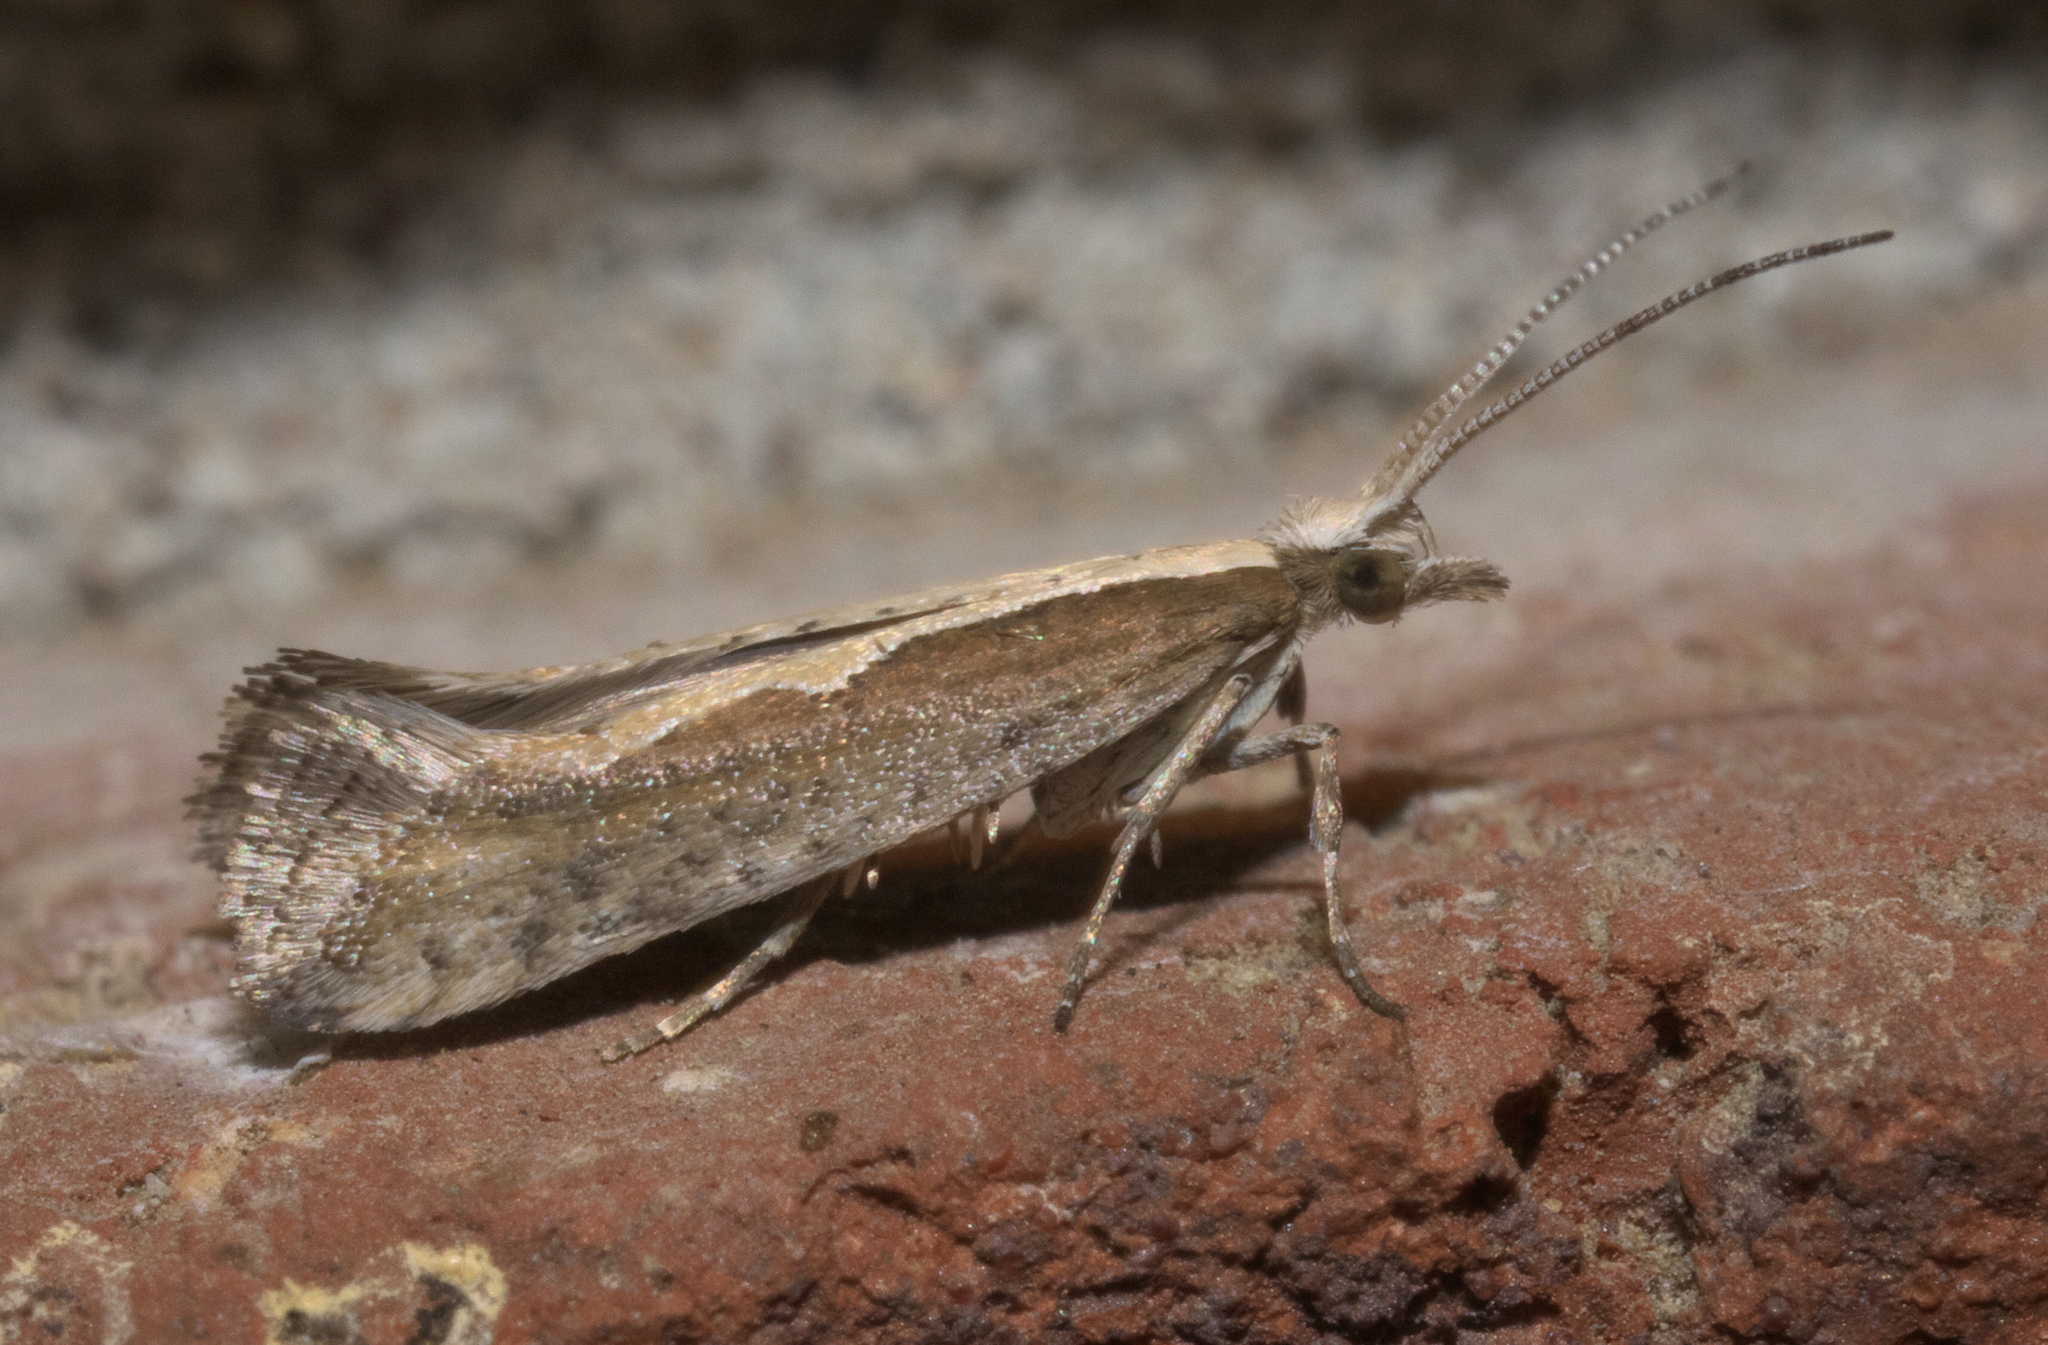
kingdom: Animalia
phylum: Arthropoda
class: Insecta
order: Lepidoptera
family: Plutellidae
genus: Plutella
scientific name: Plutella xylostella
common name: Diamond-back moth
